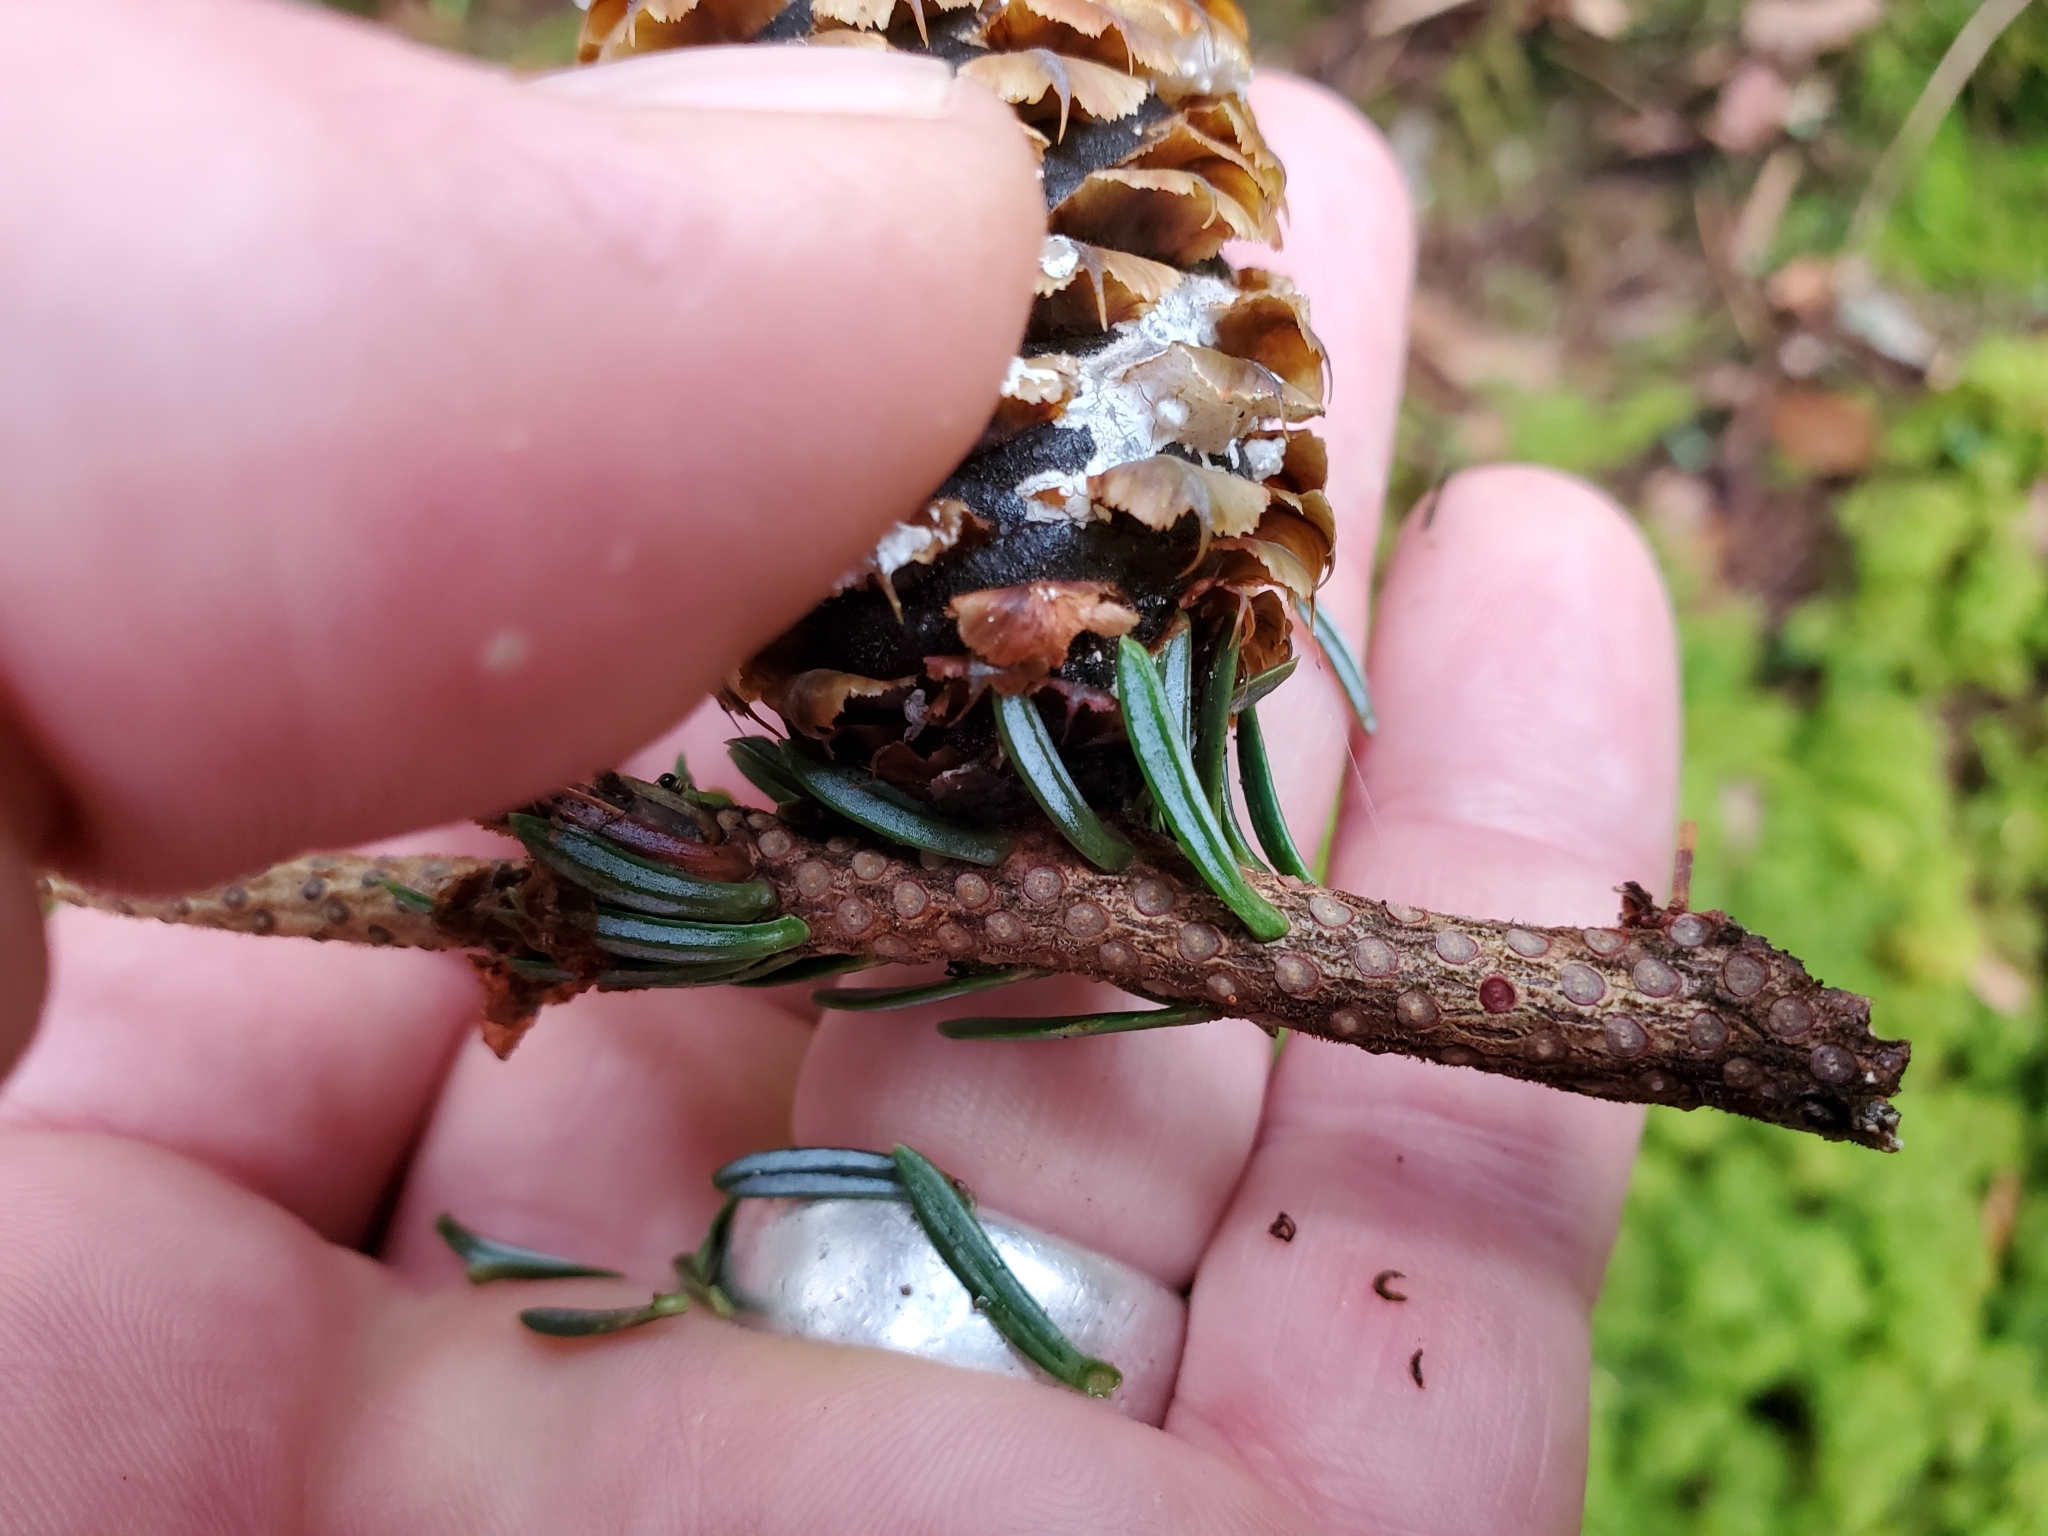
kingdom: Plantae
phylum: Tracheophyta
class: Pinopsida
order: Pinales
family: Pinaceae
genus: Abies
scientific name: Abies fraseri
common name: Fraser fir
